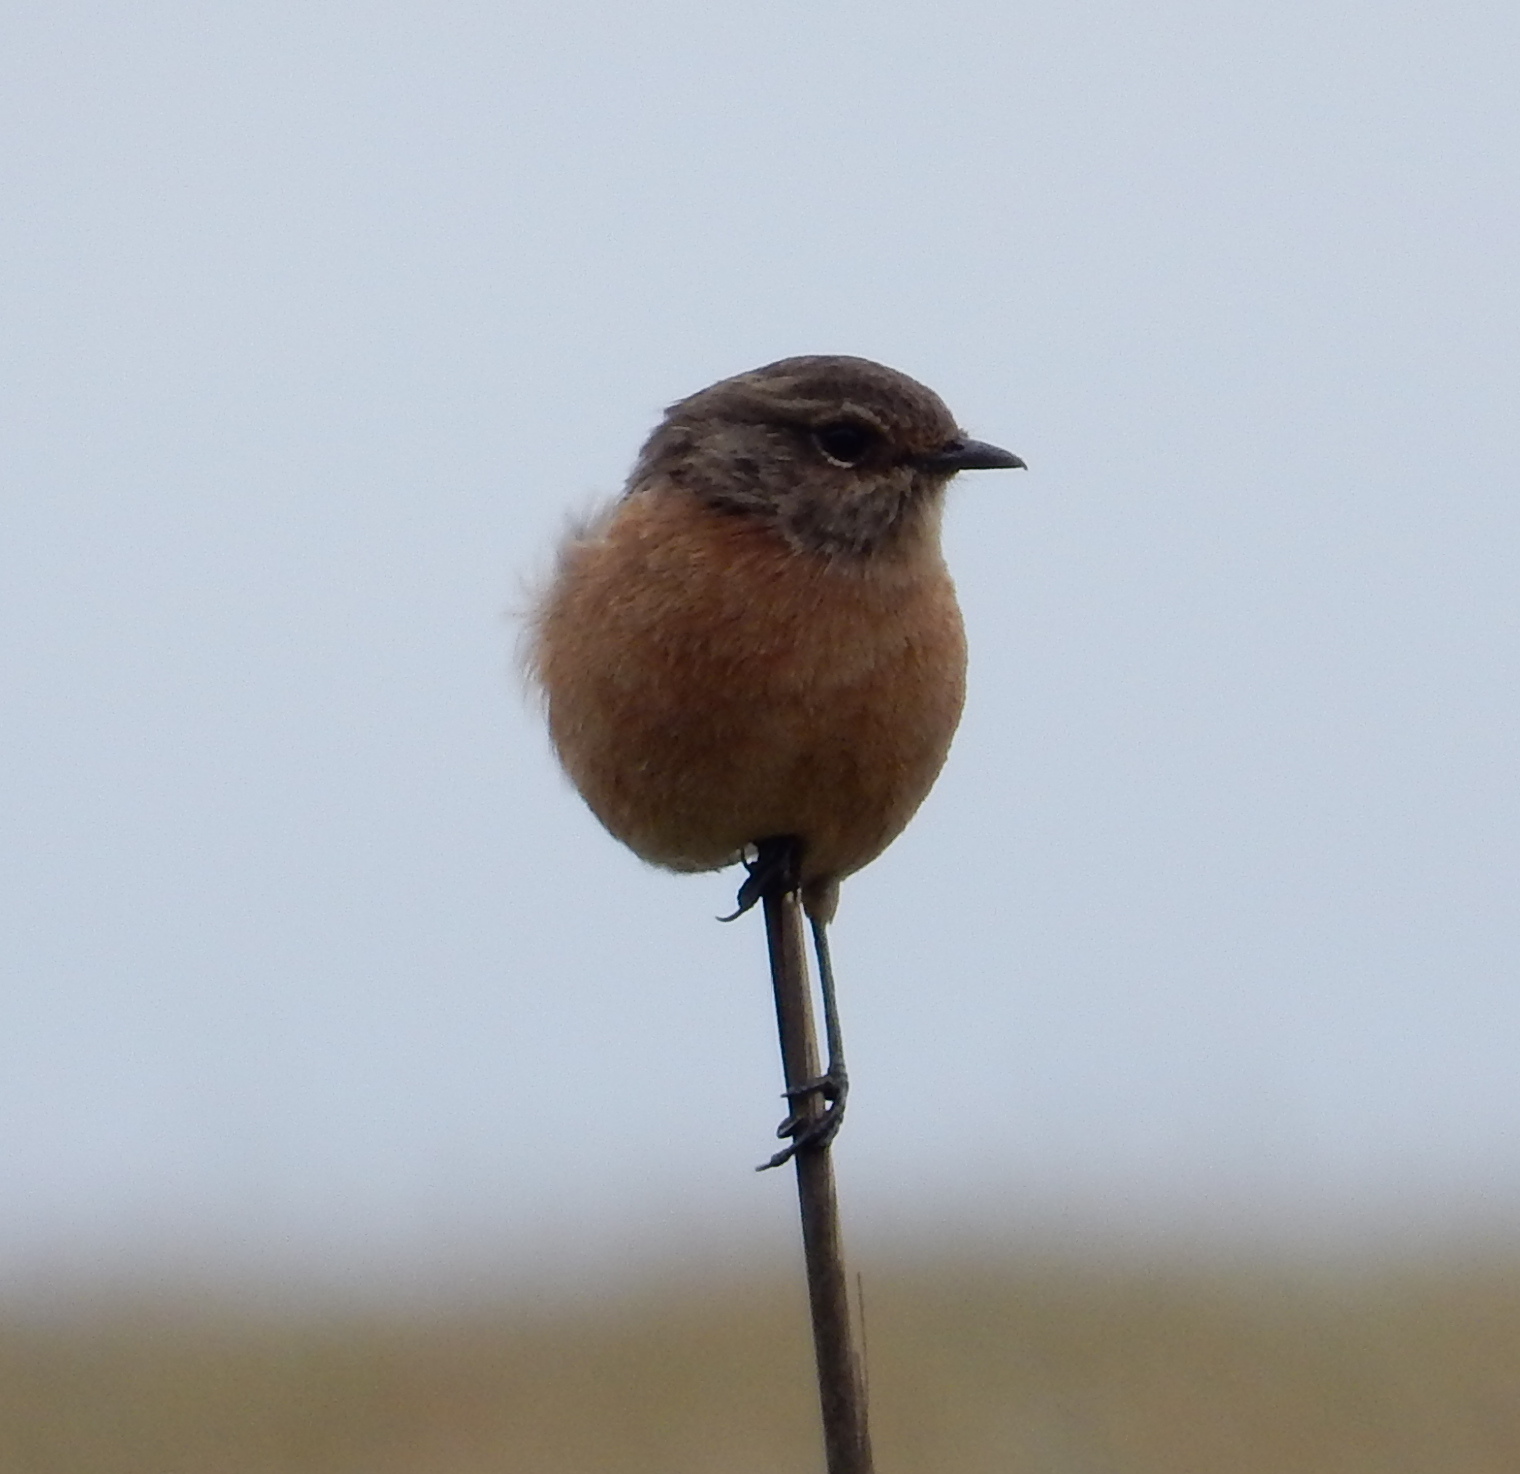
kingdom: Animalia
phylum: Chordata
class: Aves
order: Passeriformes
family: Muscicapidae
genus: Saxicola
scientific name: Saxicola torquatus
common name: African stonechat
